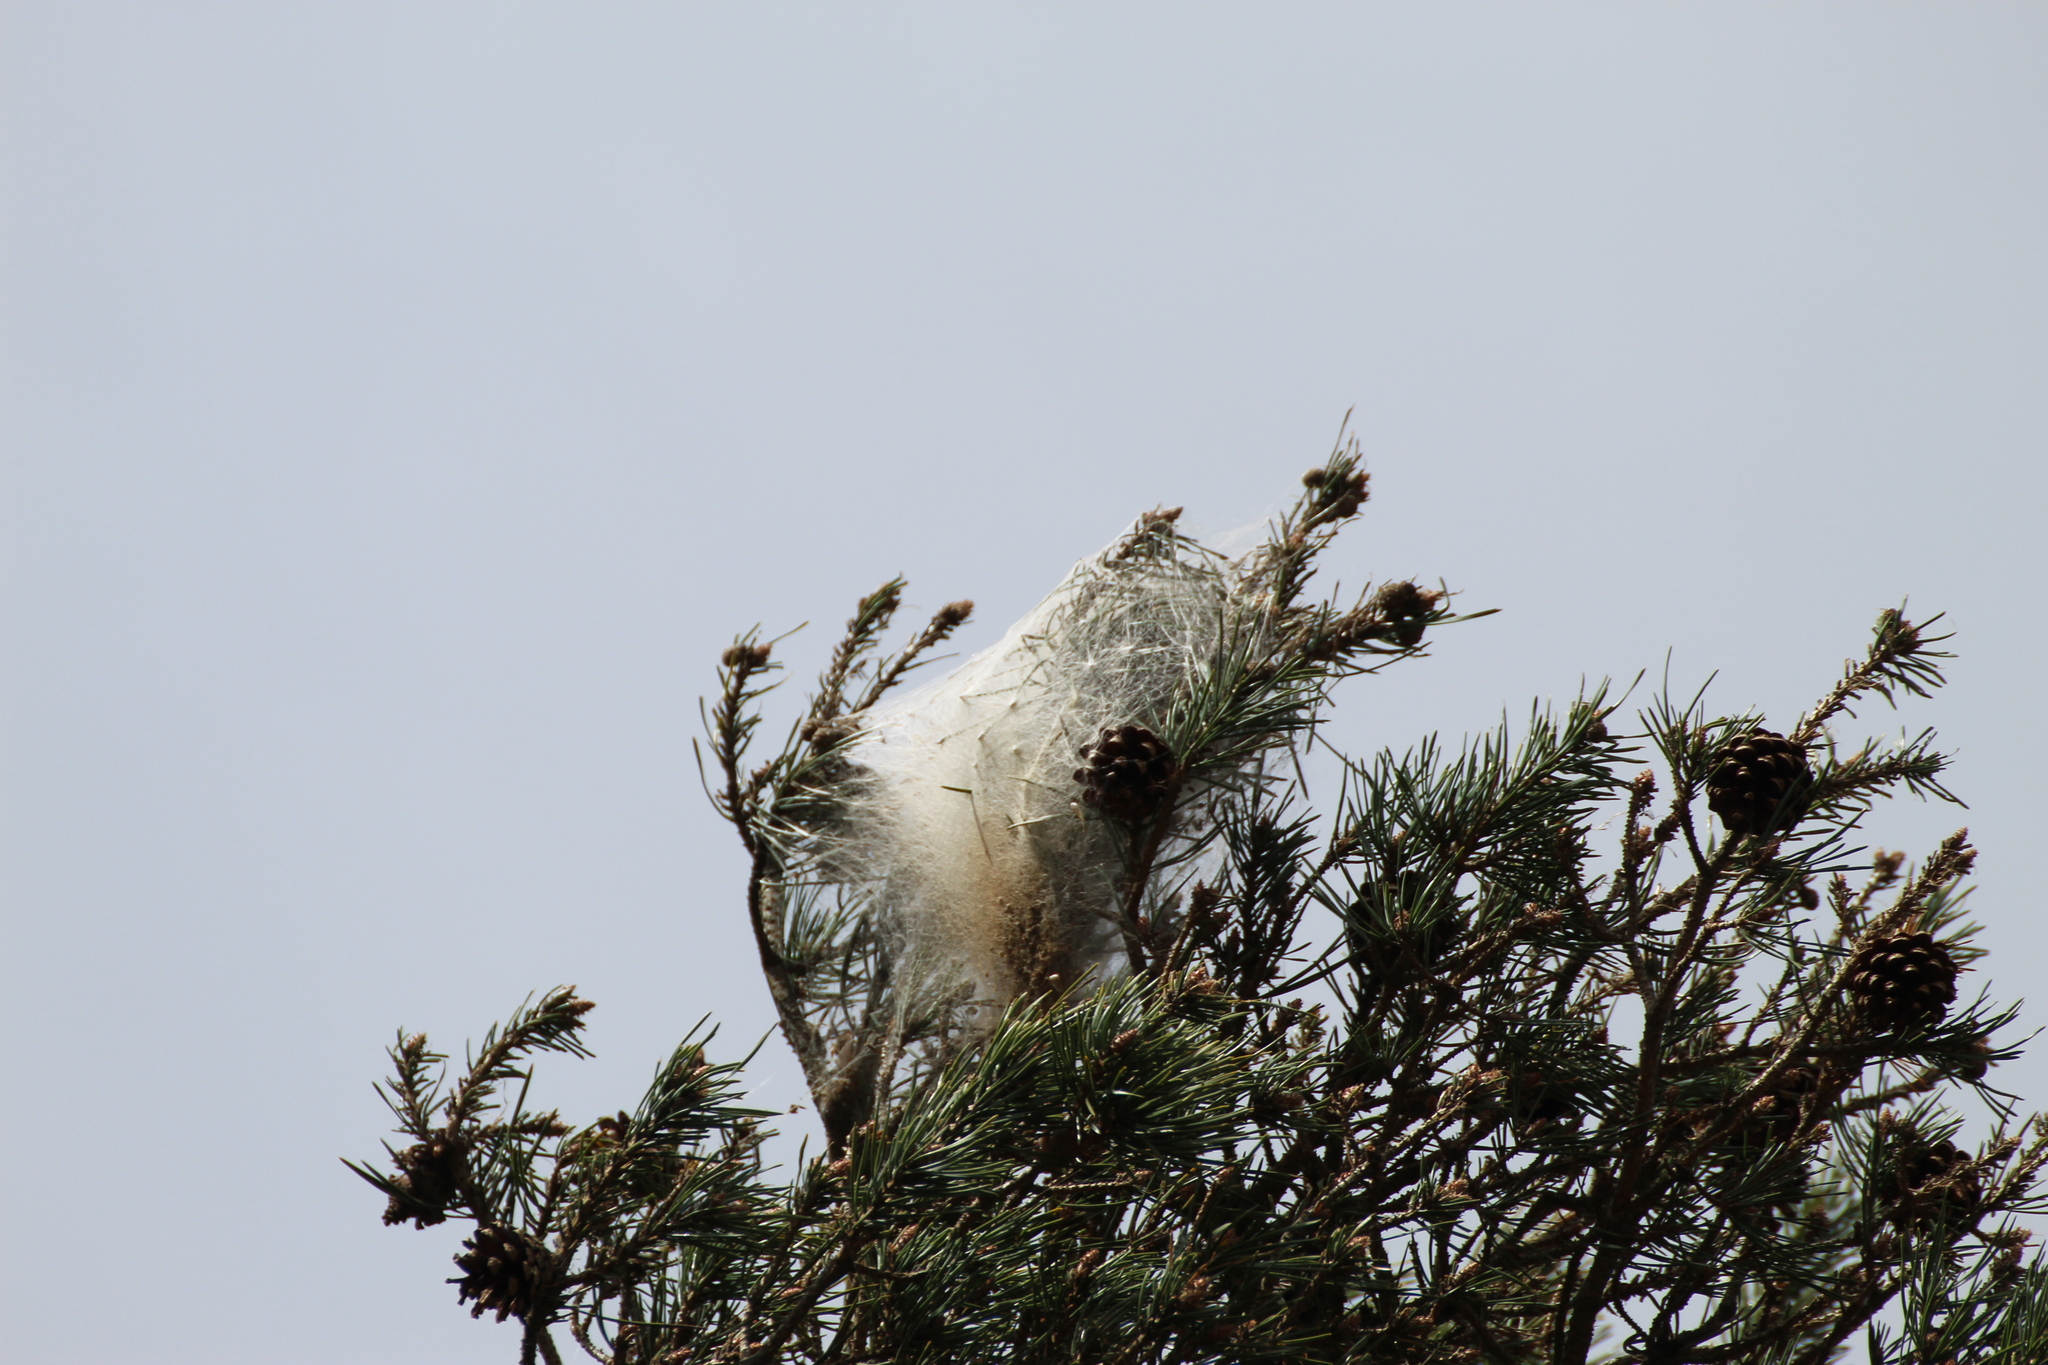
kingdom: Animalia
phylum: Arthropoda
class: Insecta
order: Lepidoptera
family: Notodontidae
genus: Thaumetopoea
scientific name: Thaumetopoea pityocampa
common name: Pine processionary
